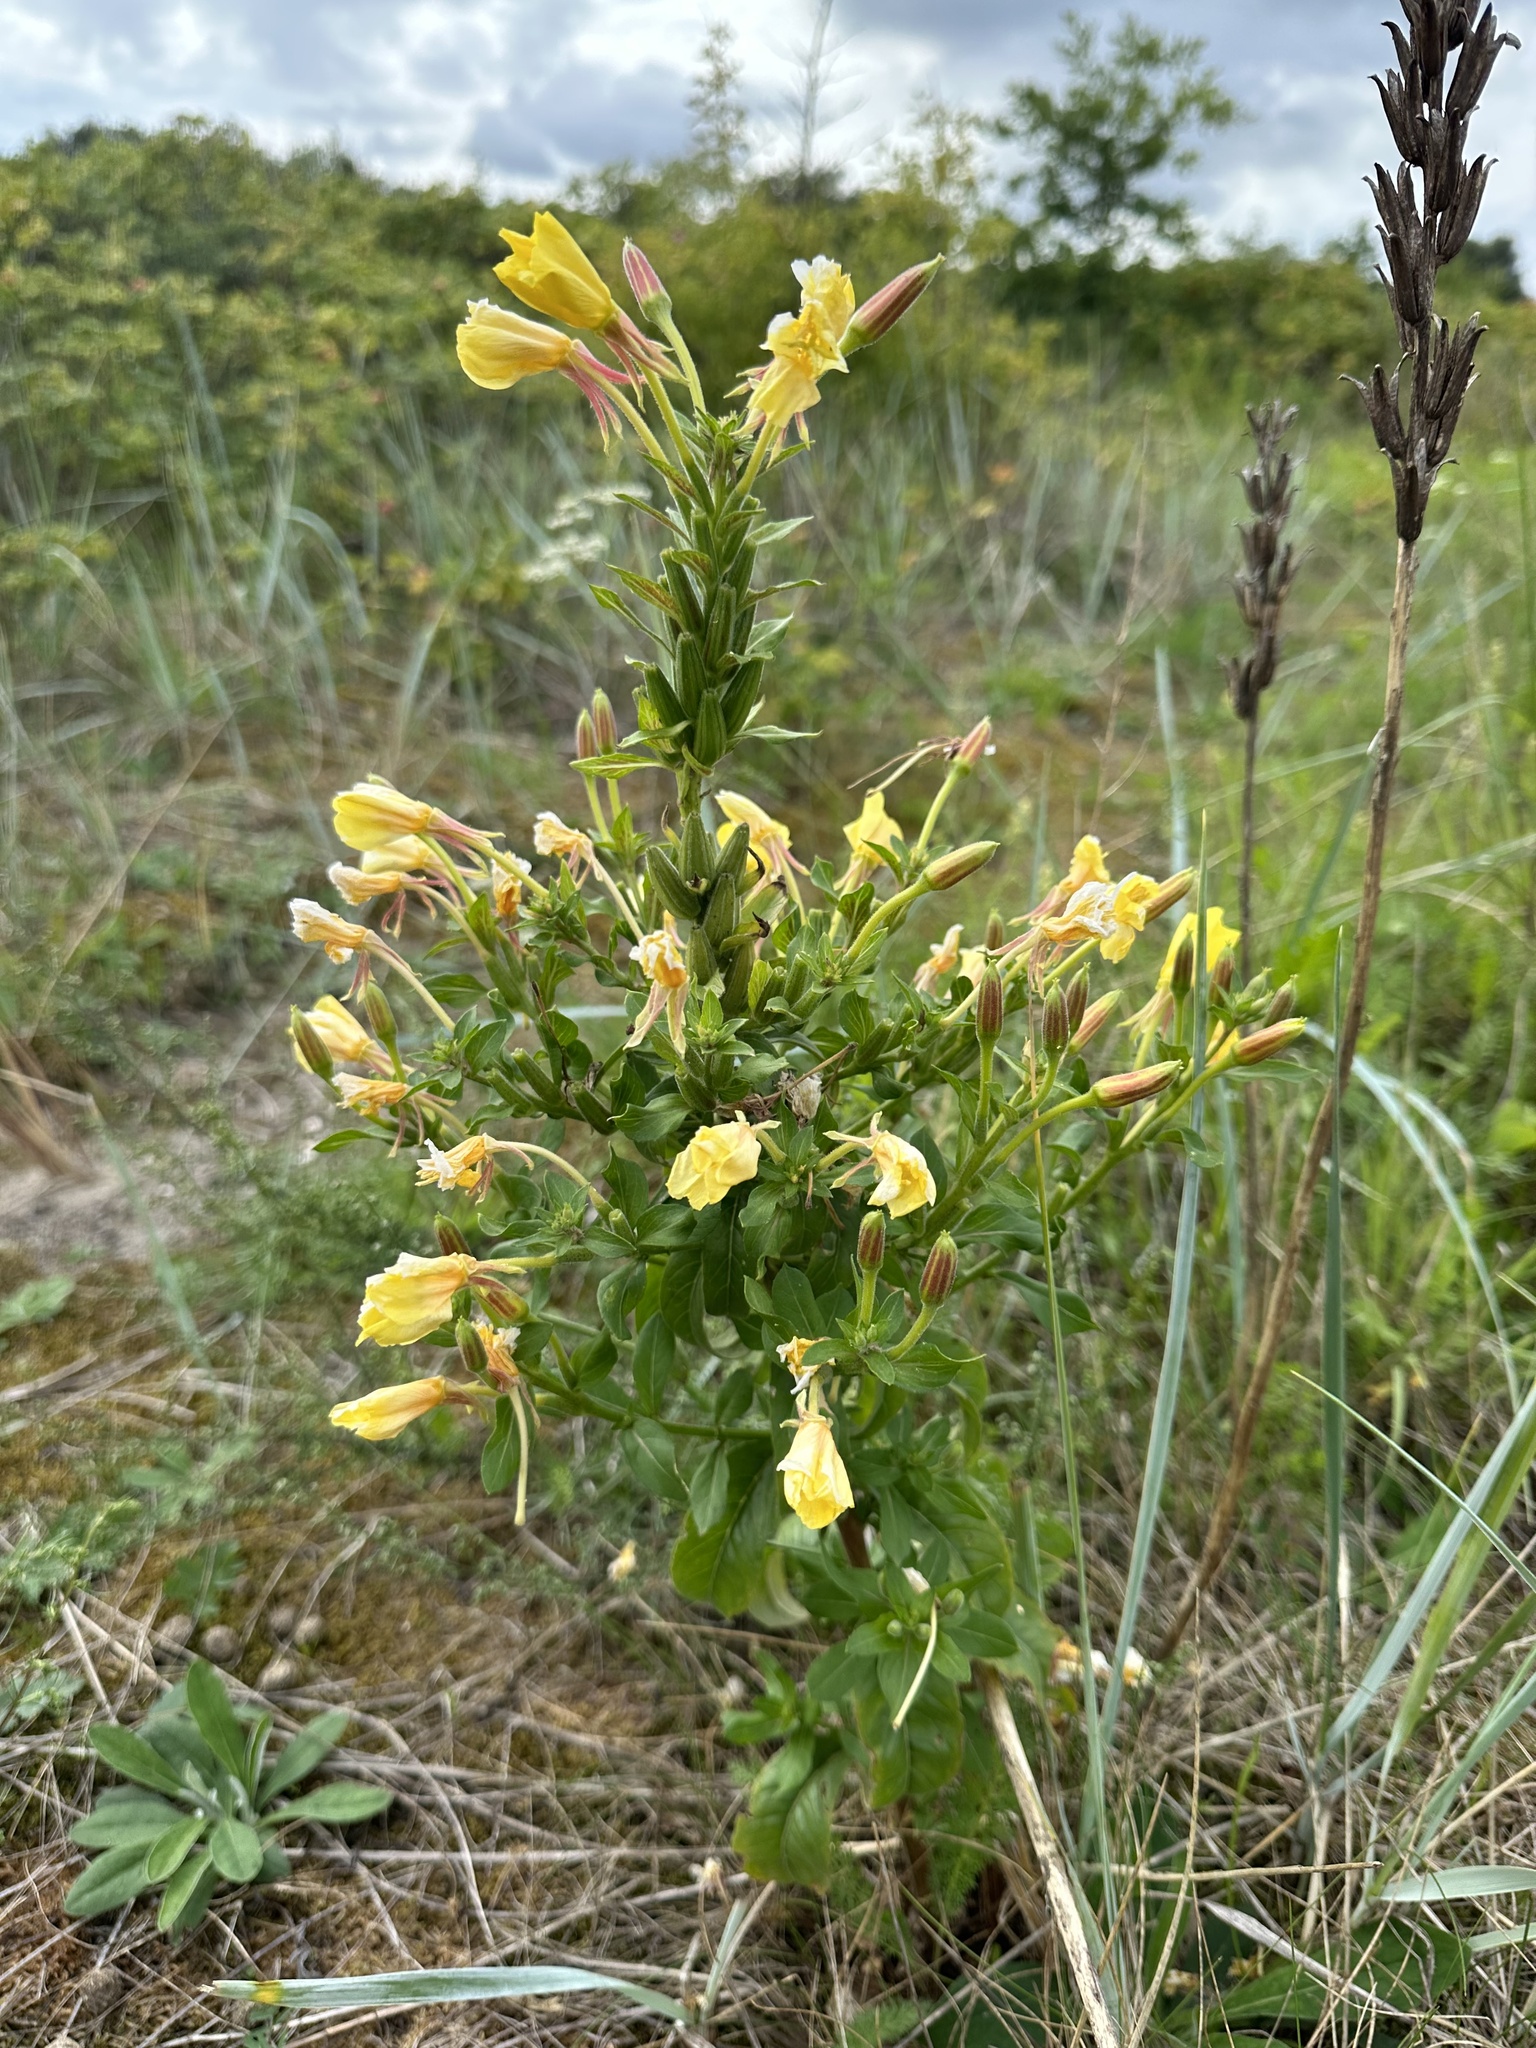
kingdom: Plantae
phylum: Tracheophyta
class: Magnoliopsida
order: Myrtales
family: Onagraceae
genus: Oenothera
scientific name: Oenothera fallax
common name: Intermediate evening-primrose
